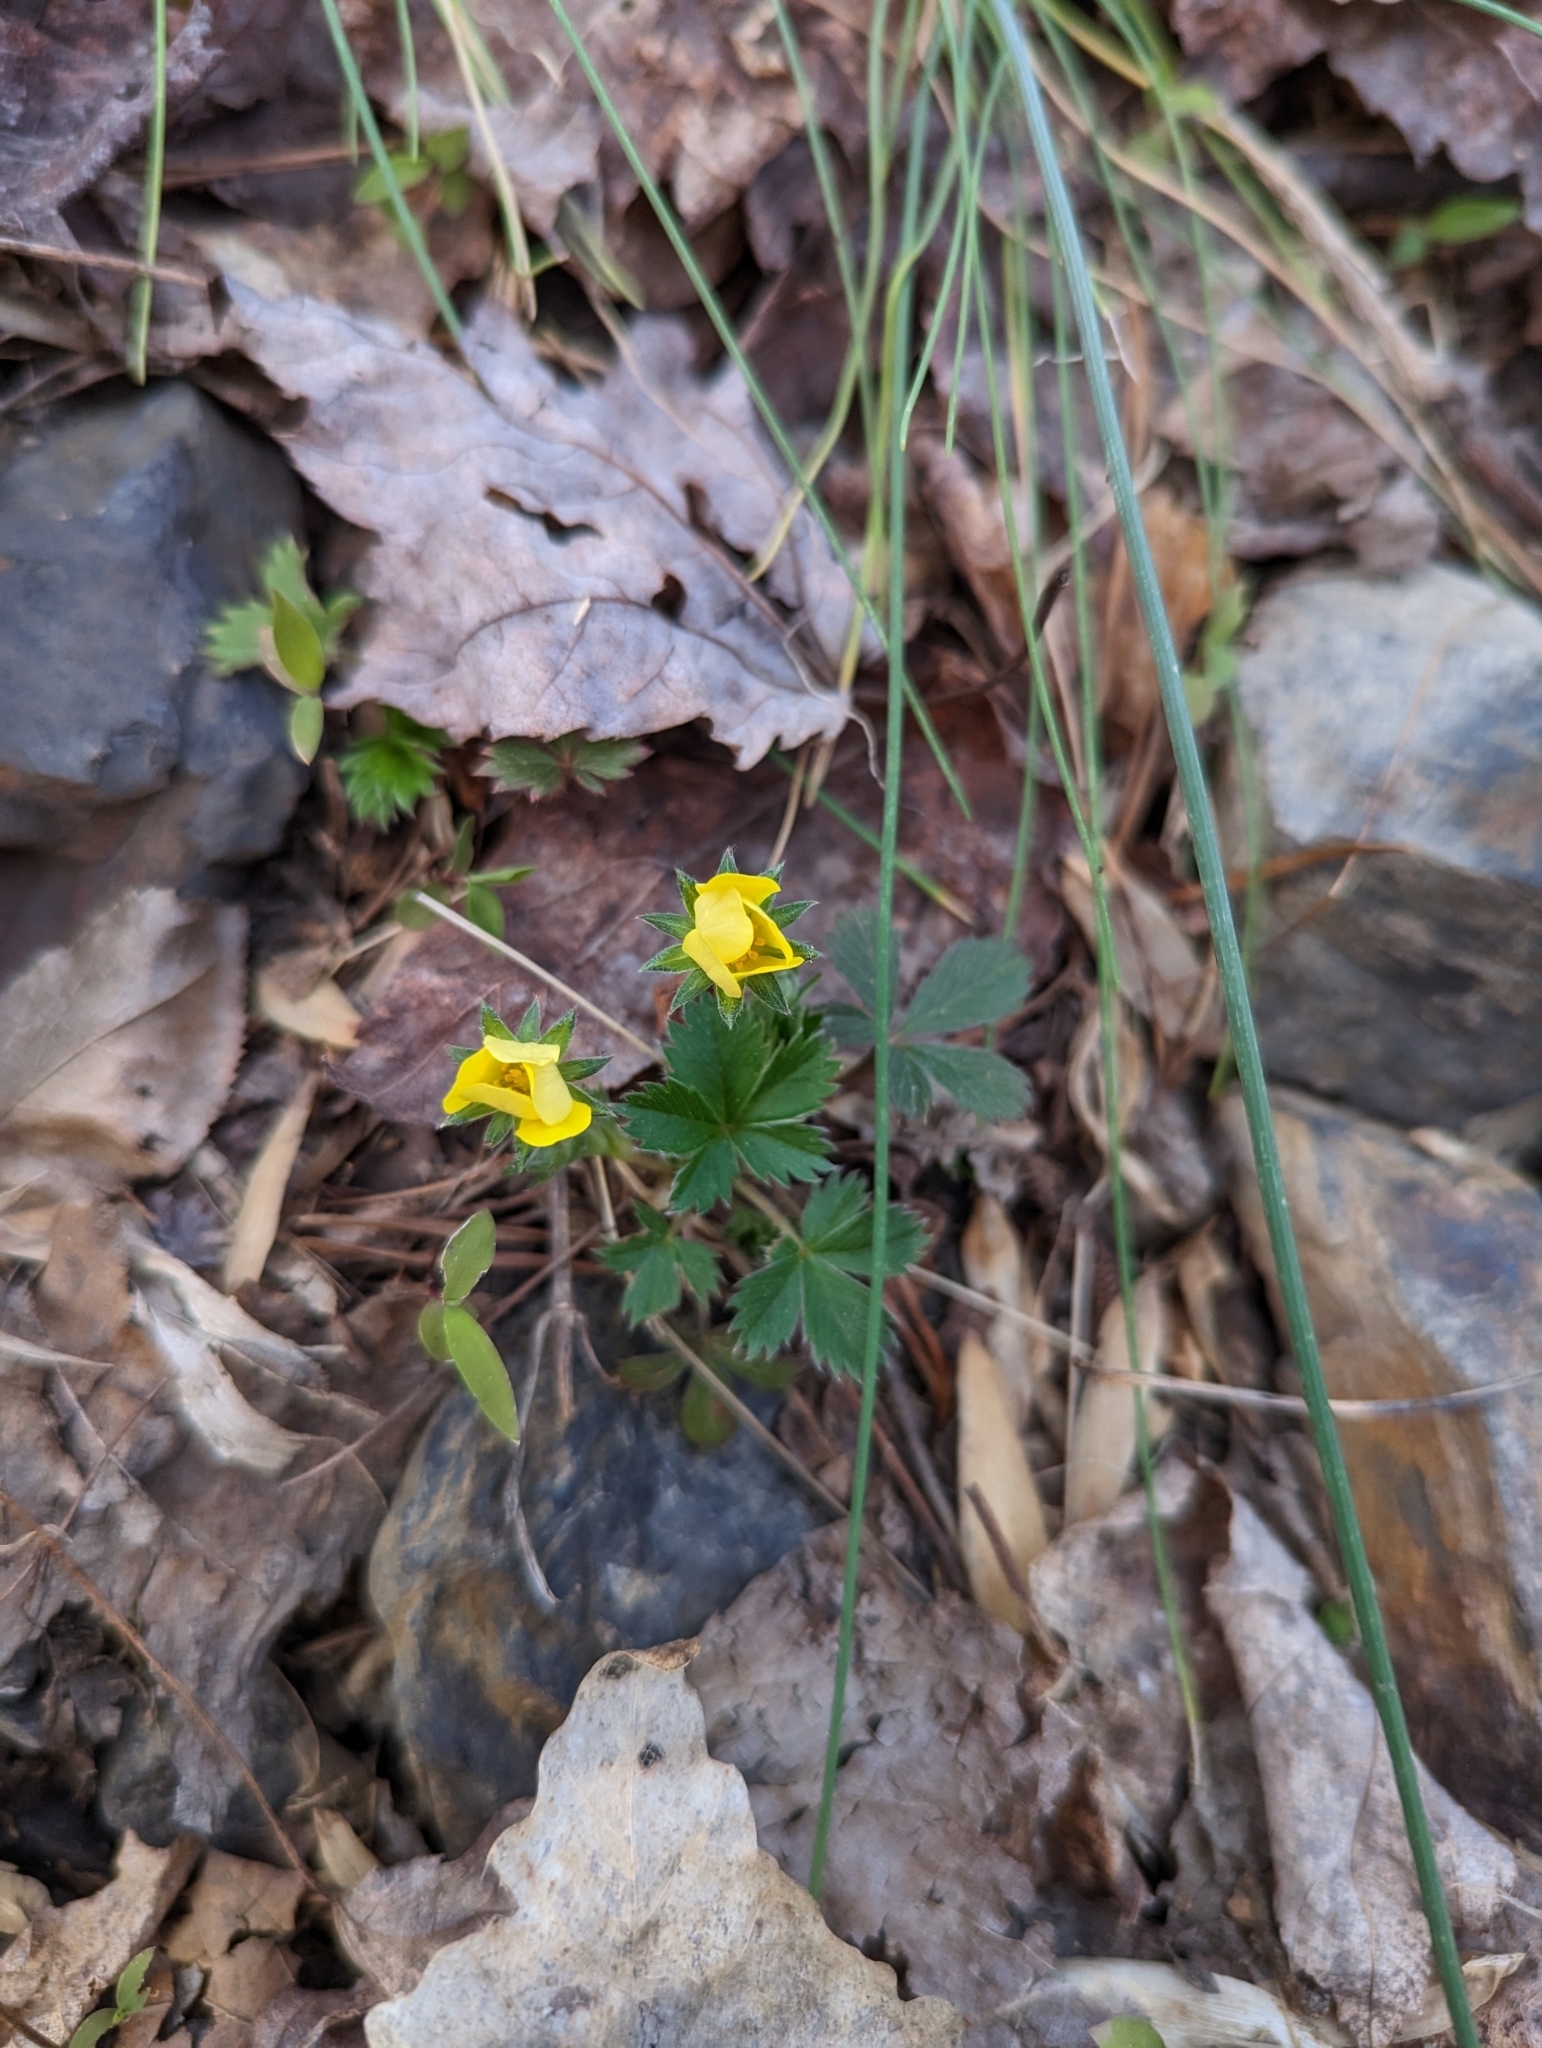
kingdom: Plantae
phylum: Tracheophyta
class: Magnoliopsida
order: Rosales
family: Rosaceae
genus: Potentilla
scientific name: Potentilla canadensis
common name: Canada cinquefoil
